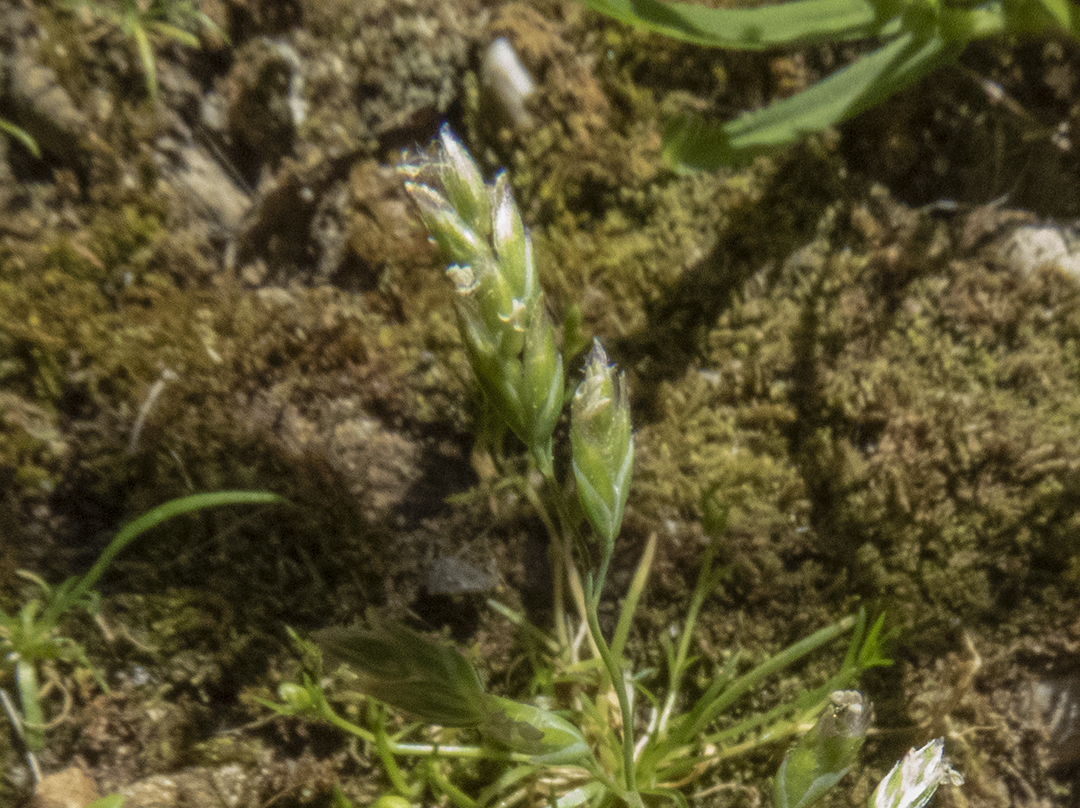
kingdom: Plantae
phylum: Tracheophyta
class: Liliopsida
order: Poales
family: Poaceae
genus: Poa
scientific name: Poa annua
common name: Annual bluegrass
